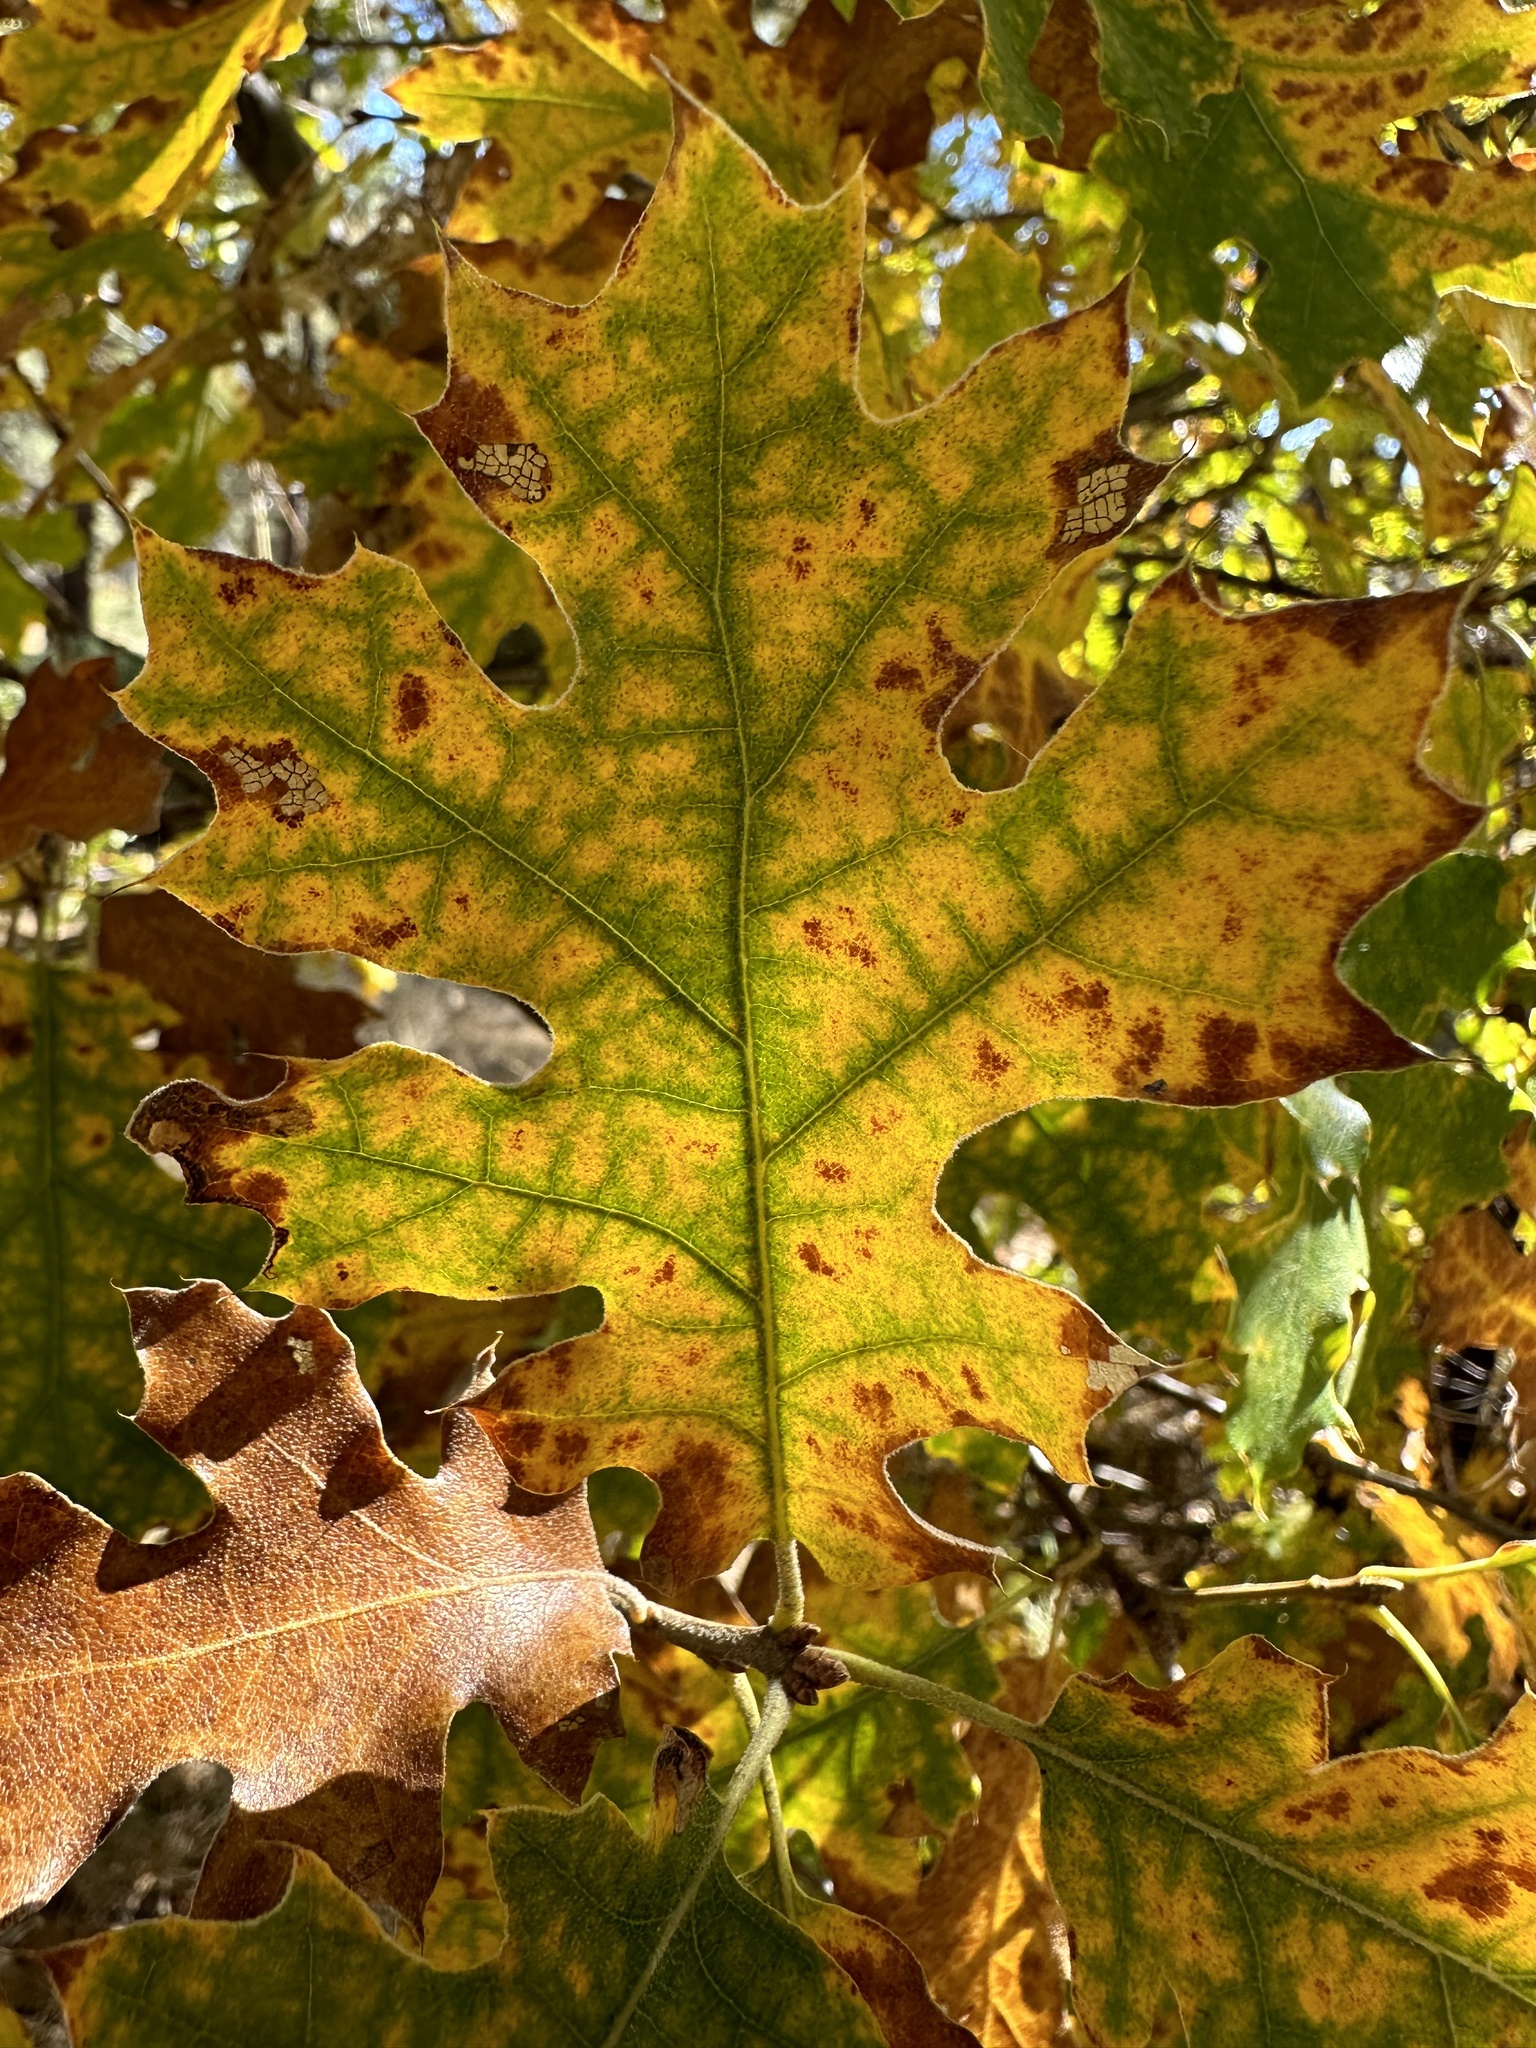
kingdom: Plantae
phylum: Tracheophyta
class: Magnoliopsida
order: Fagales
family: Fagaceae
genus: Quercus
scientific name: Quercus kelloggii
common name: California black oak
